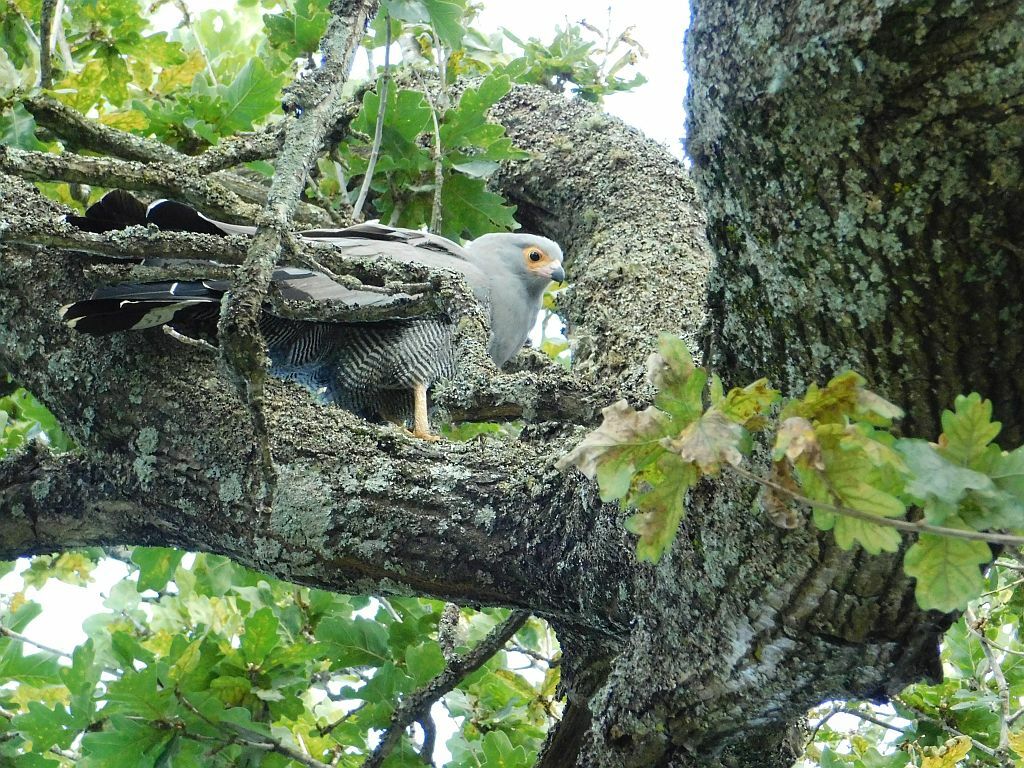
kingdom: Animalia
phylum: Chordata
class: Aves
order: Accipitriformes
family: Accipitridae
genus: Polyboroides
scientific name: Polyboroides typus
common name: African harrier-hawk
